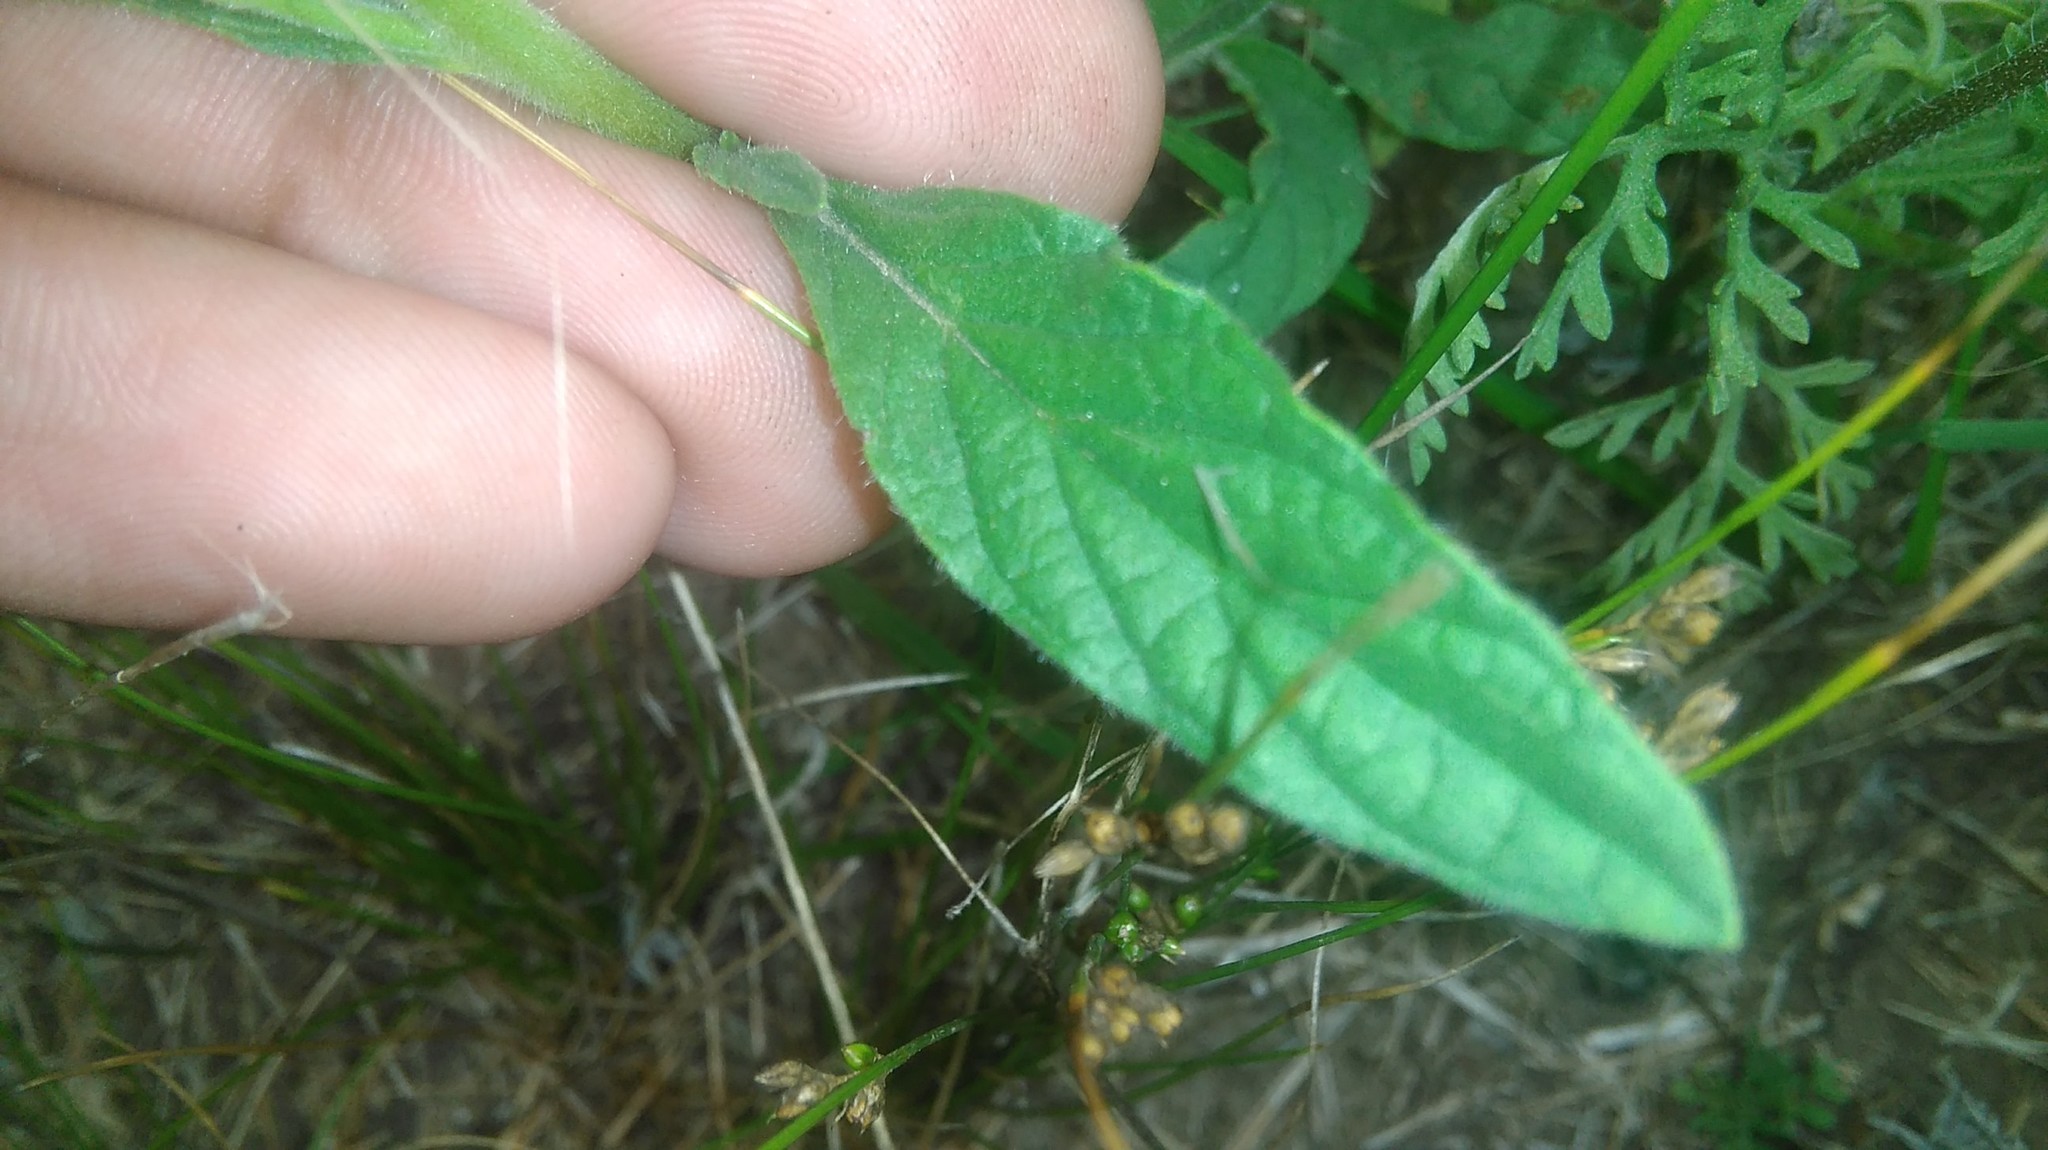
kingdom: Plantae
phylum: Tracheophyta
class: Magnoliopsida
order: Boraginales
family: Heliotropiaceae
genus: Heliotropium
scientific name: Heliotropium amplexicaule
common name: Clasping heliotrope
